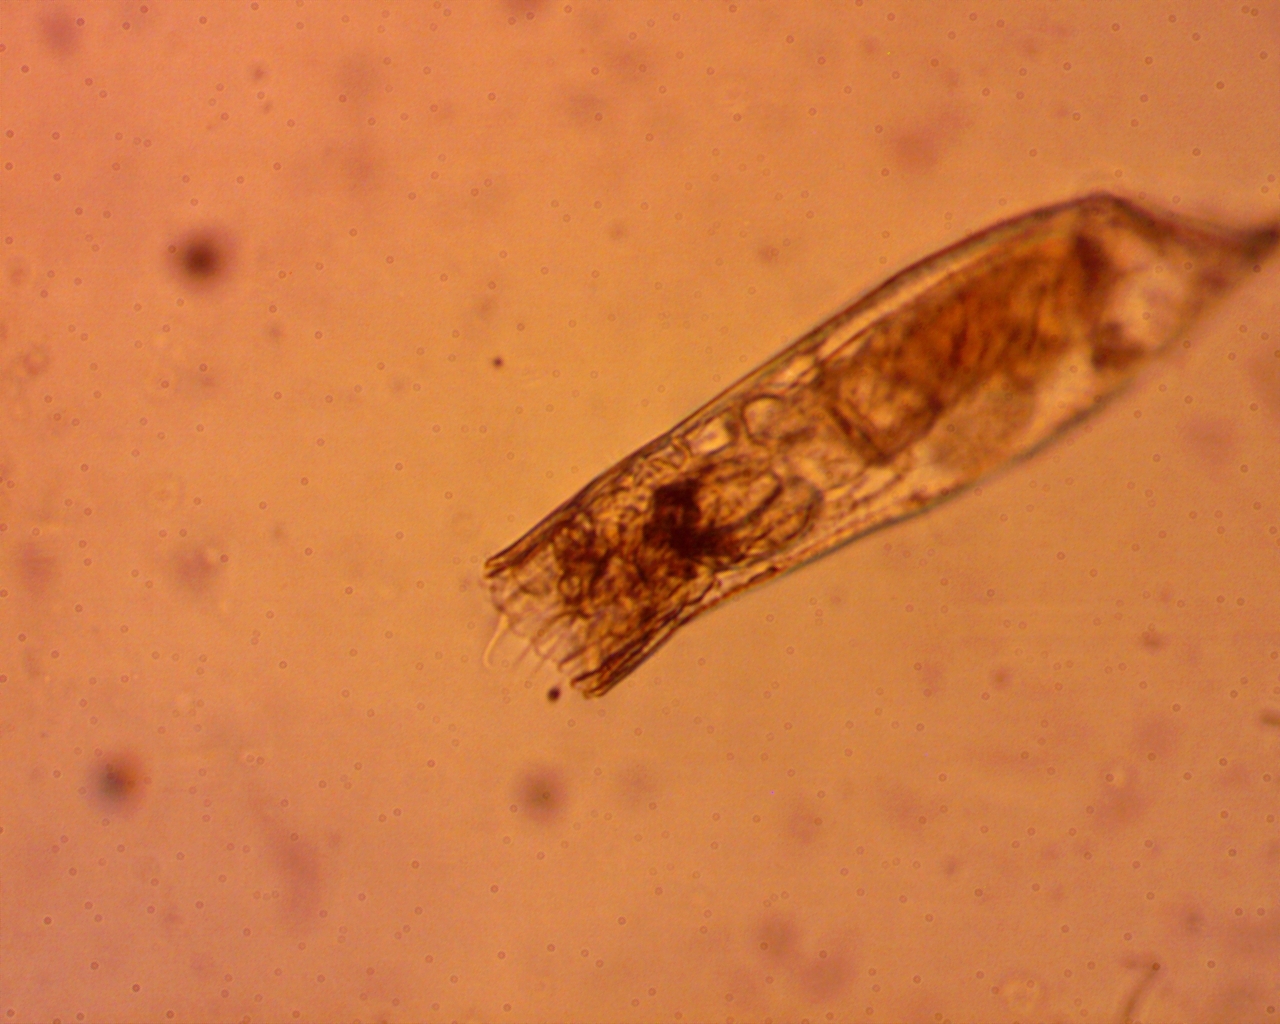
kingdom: Animalia
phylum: Rotifera
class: Eurotatoria
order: Ploima
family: Trichocercidae
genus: Trichocerca
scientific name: Trichocerca cylindrica
